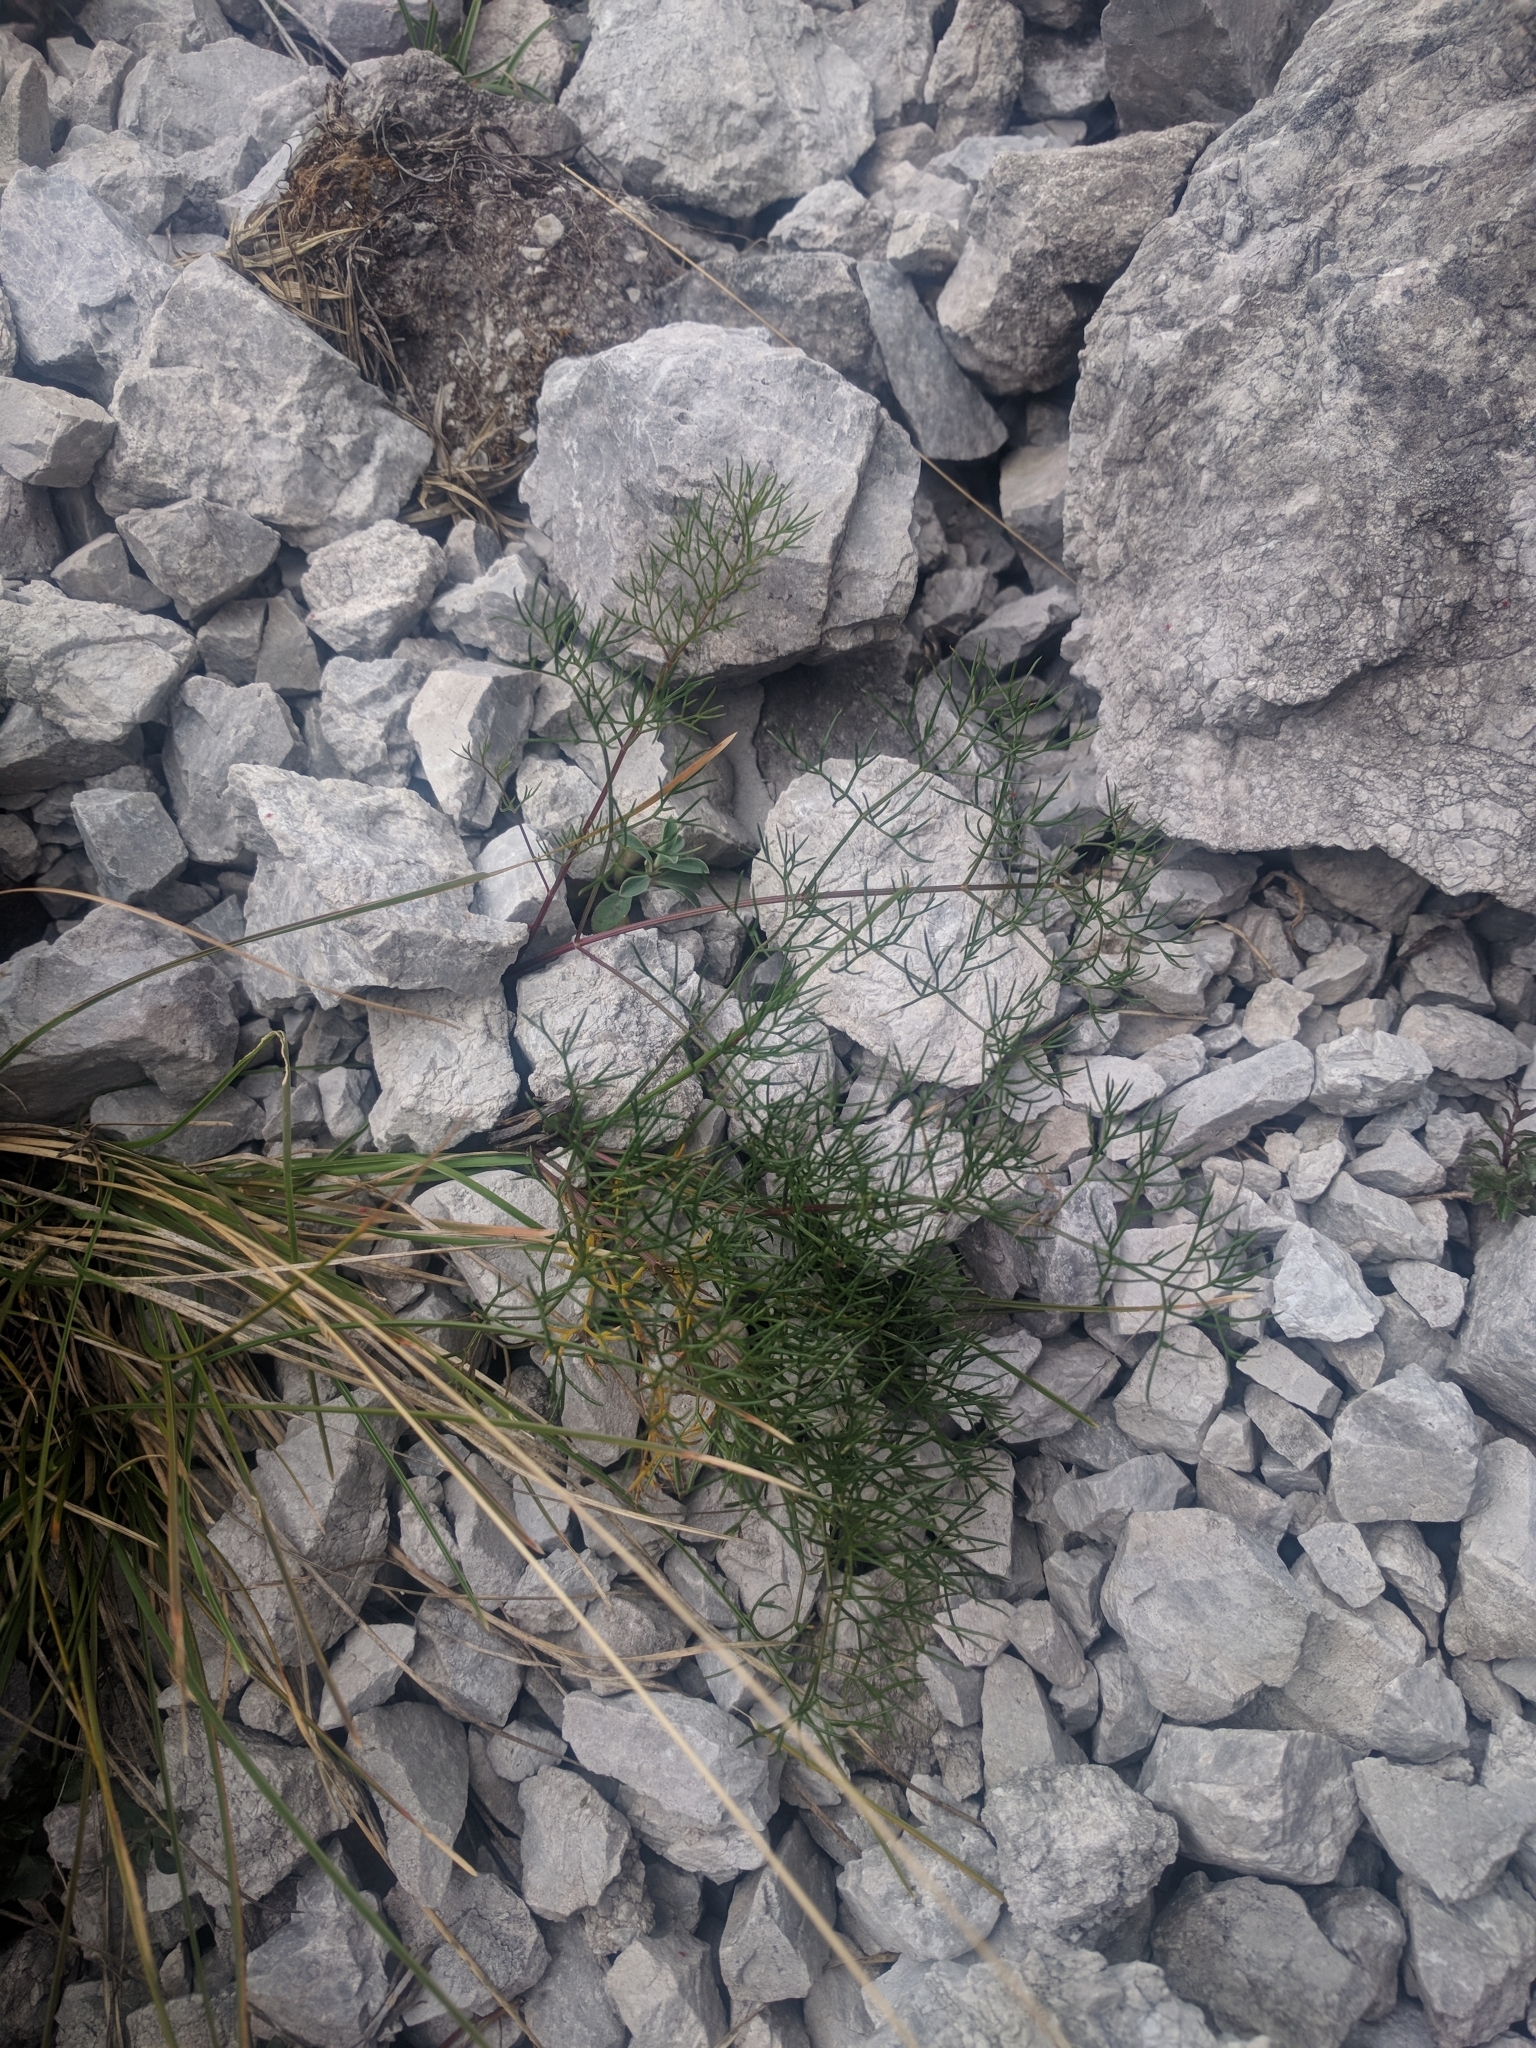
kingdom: Plantae
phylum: Tracheophyta
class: Magnoliopsida
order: Apiales
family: Apiaceae
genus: Seseli
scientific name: Seseli austriacum
